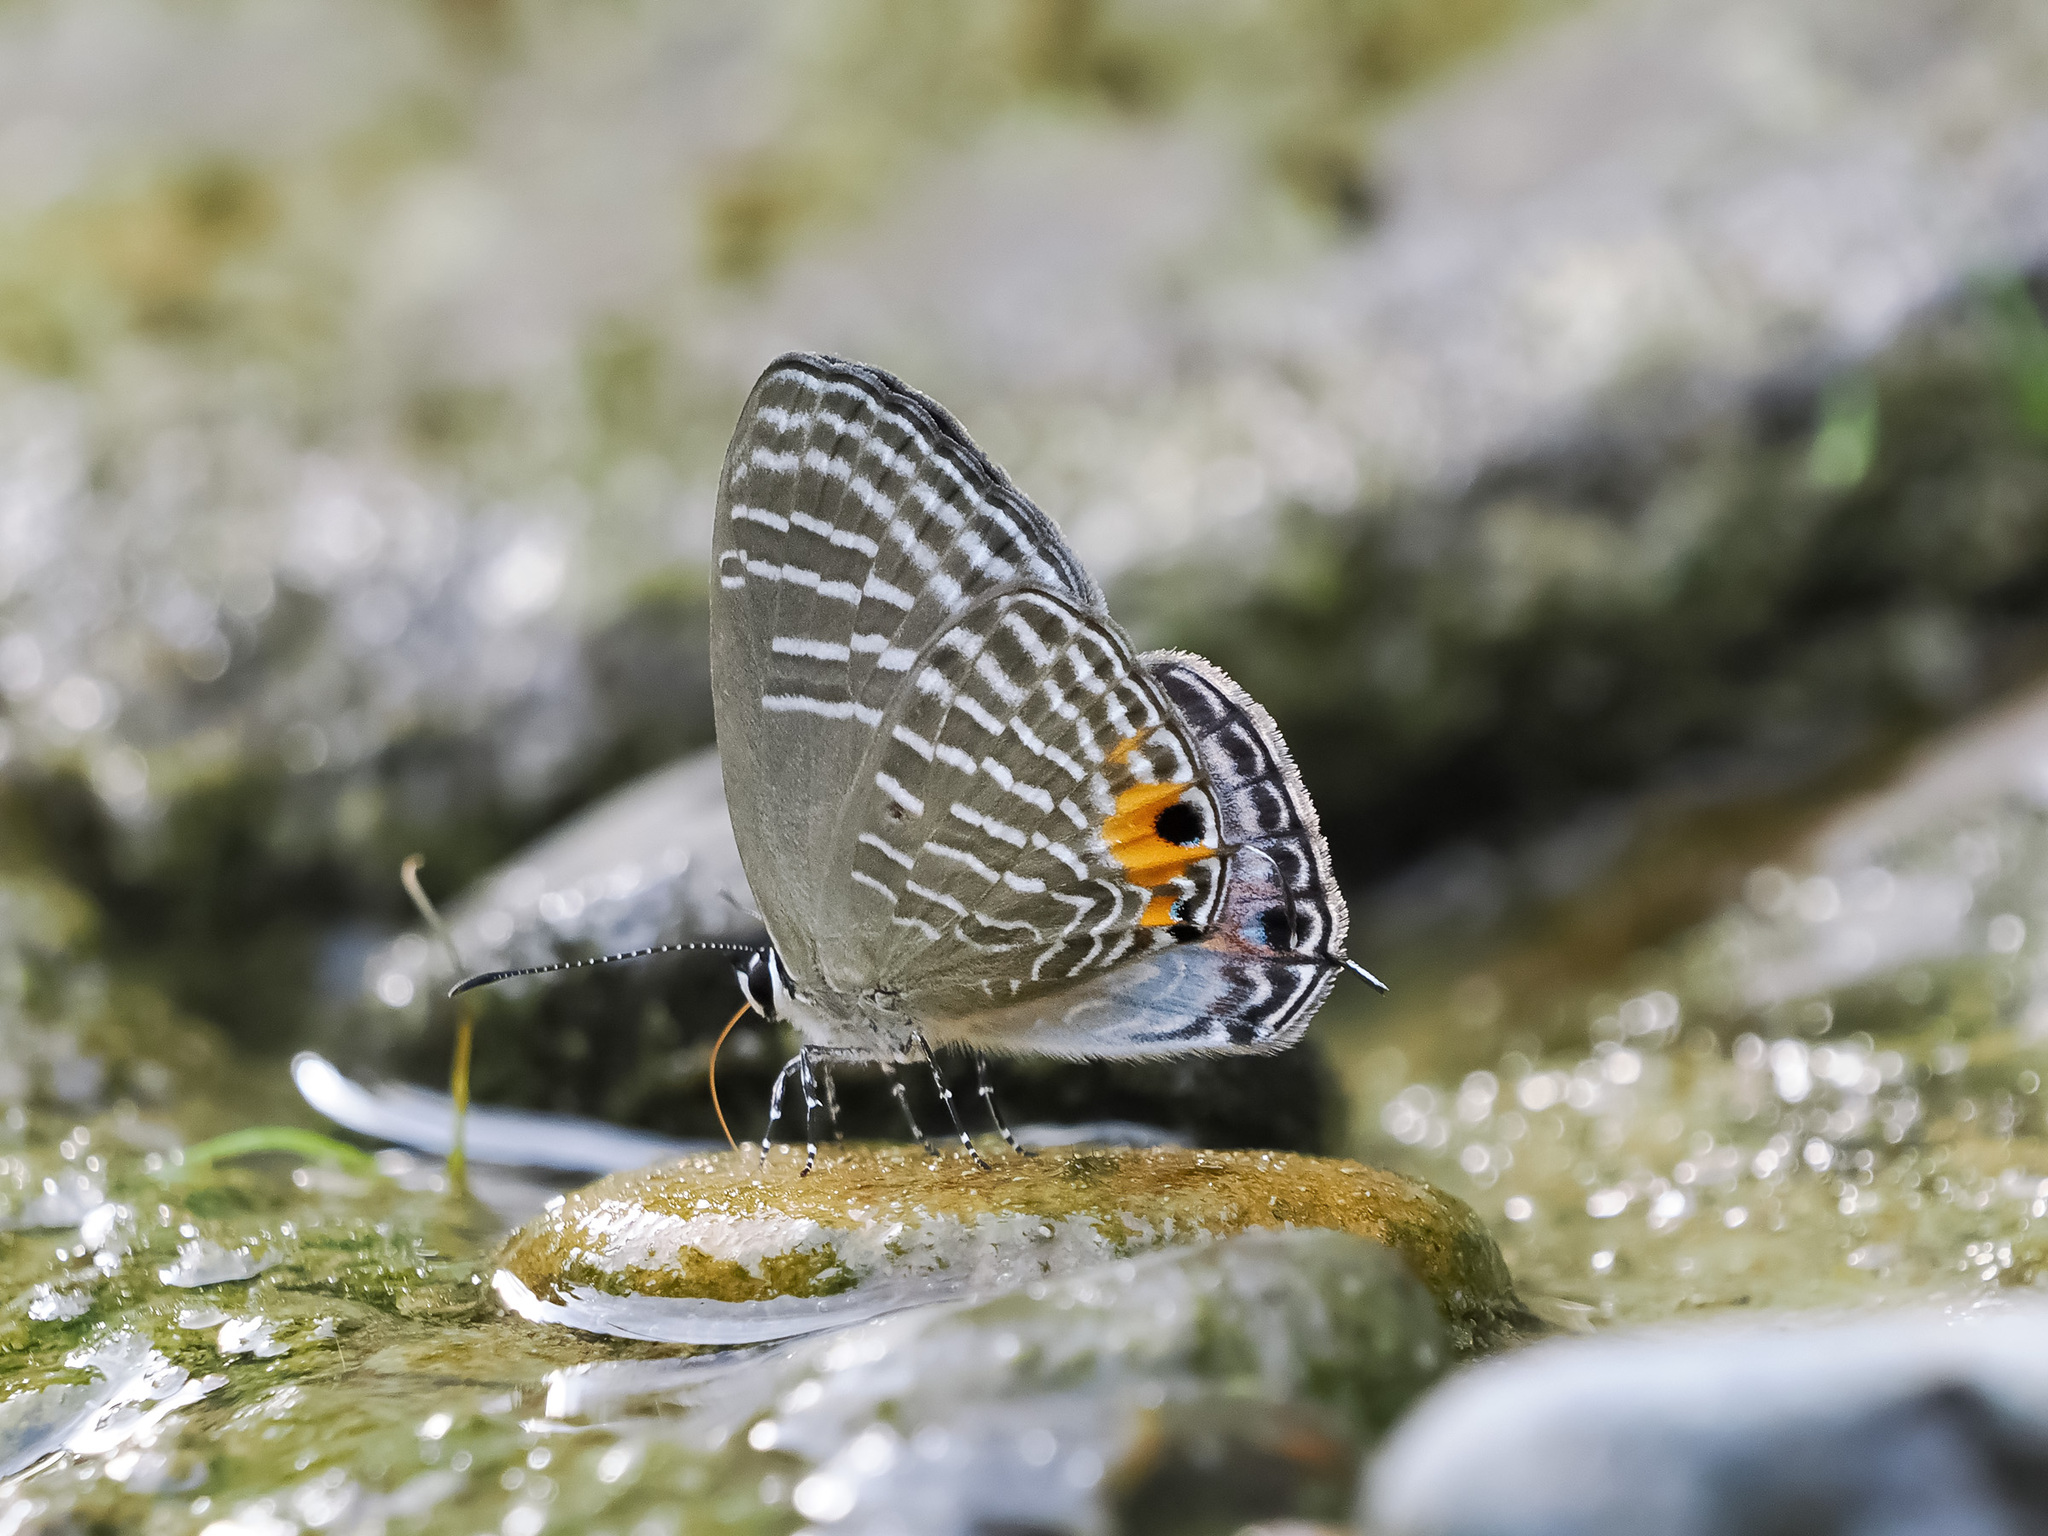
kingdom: Animalia
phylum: Arthropoda
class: Insecta
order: Lepidoptera
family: Lycaenidae
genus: Jamides
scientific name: Jamides alecto
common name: Metallic cerulean
